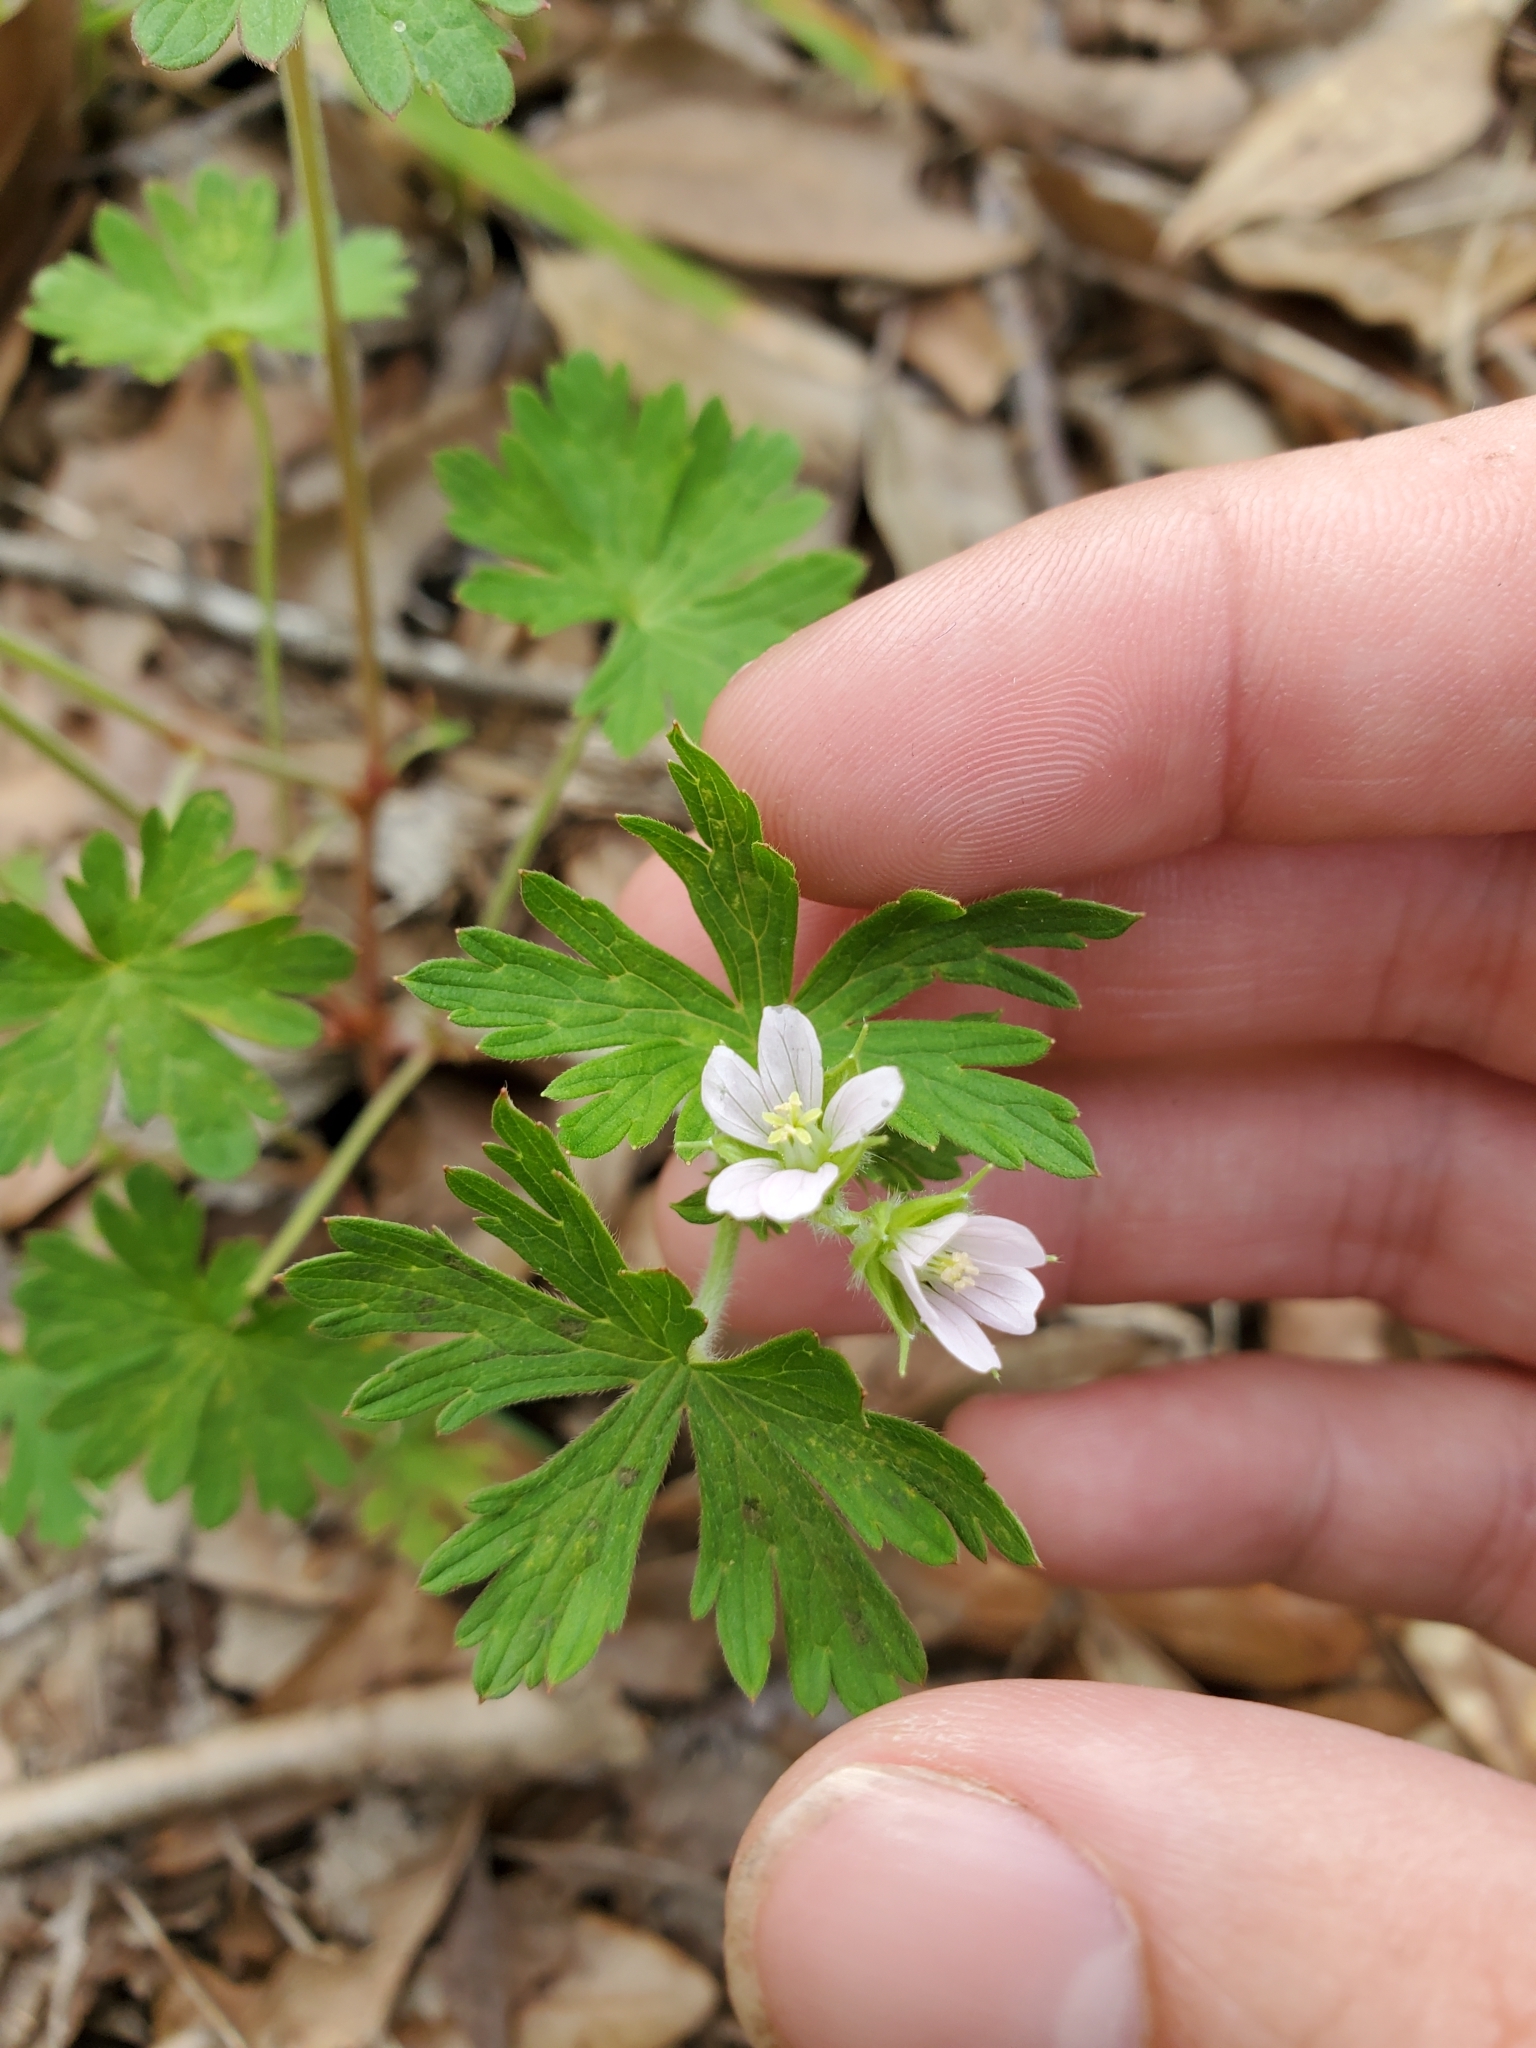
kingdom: Plantae
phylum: Tracheophyta
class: Magnoliopsida
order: Geraniales
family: Geraniaceae
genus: Geranium
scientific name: Geranium carolinianum
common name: Carolina crane's-bill
